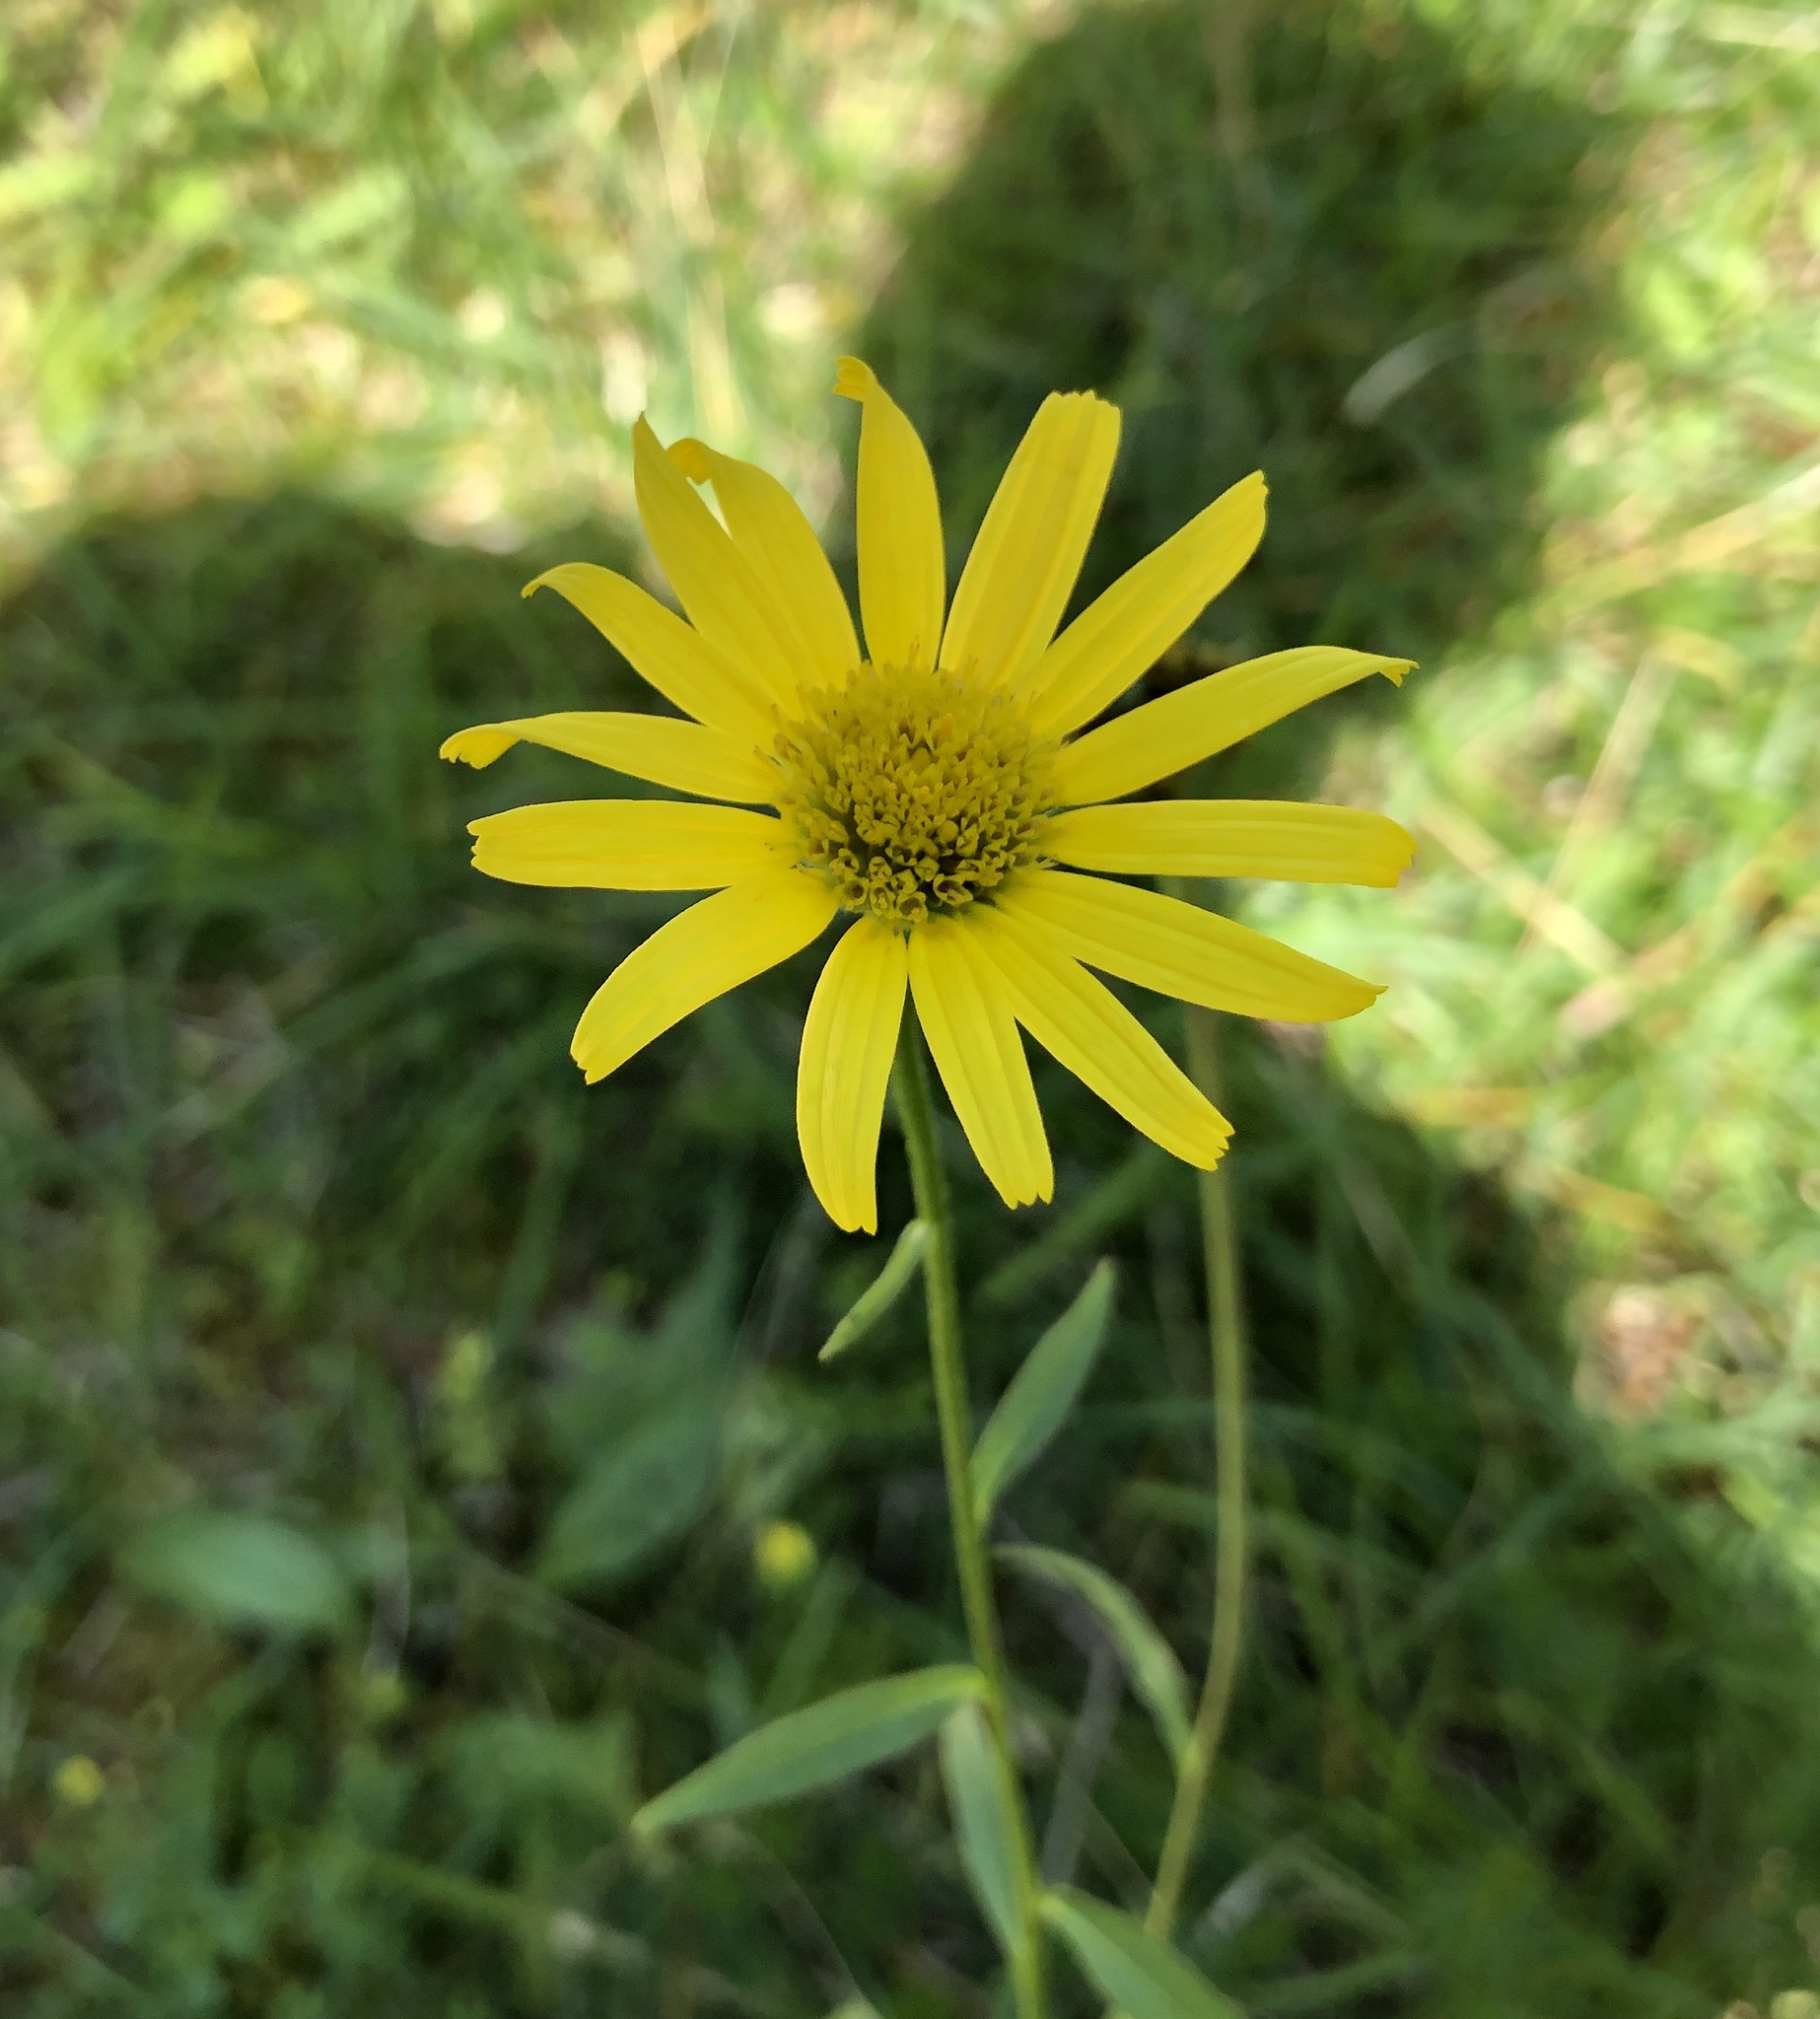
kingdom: Plantae
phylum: Tracheophyta
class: Magnoliopsida
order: Asterales
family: Asteraceae
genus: Buphthalmum
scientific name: Buphthalmum salicifolium
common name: Willow-leaved yellow-oxeye
